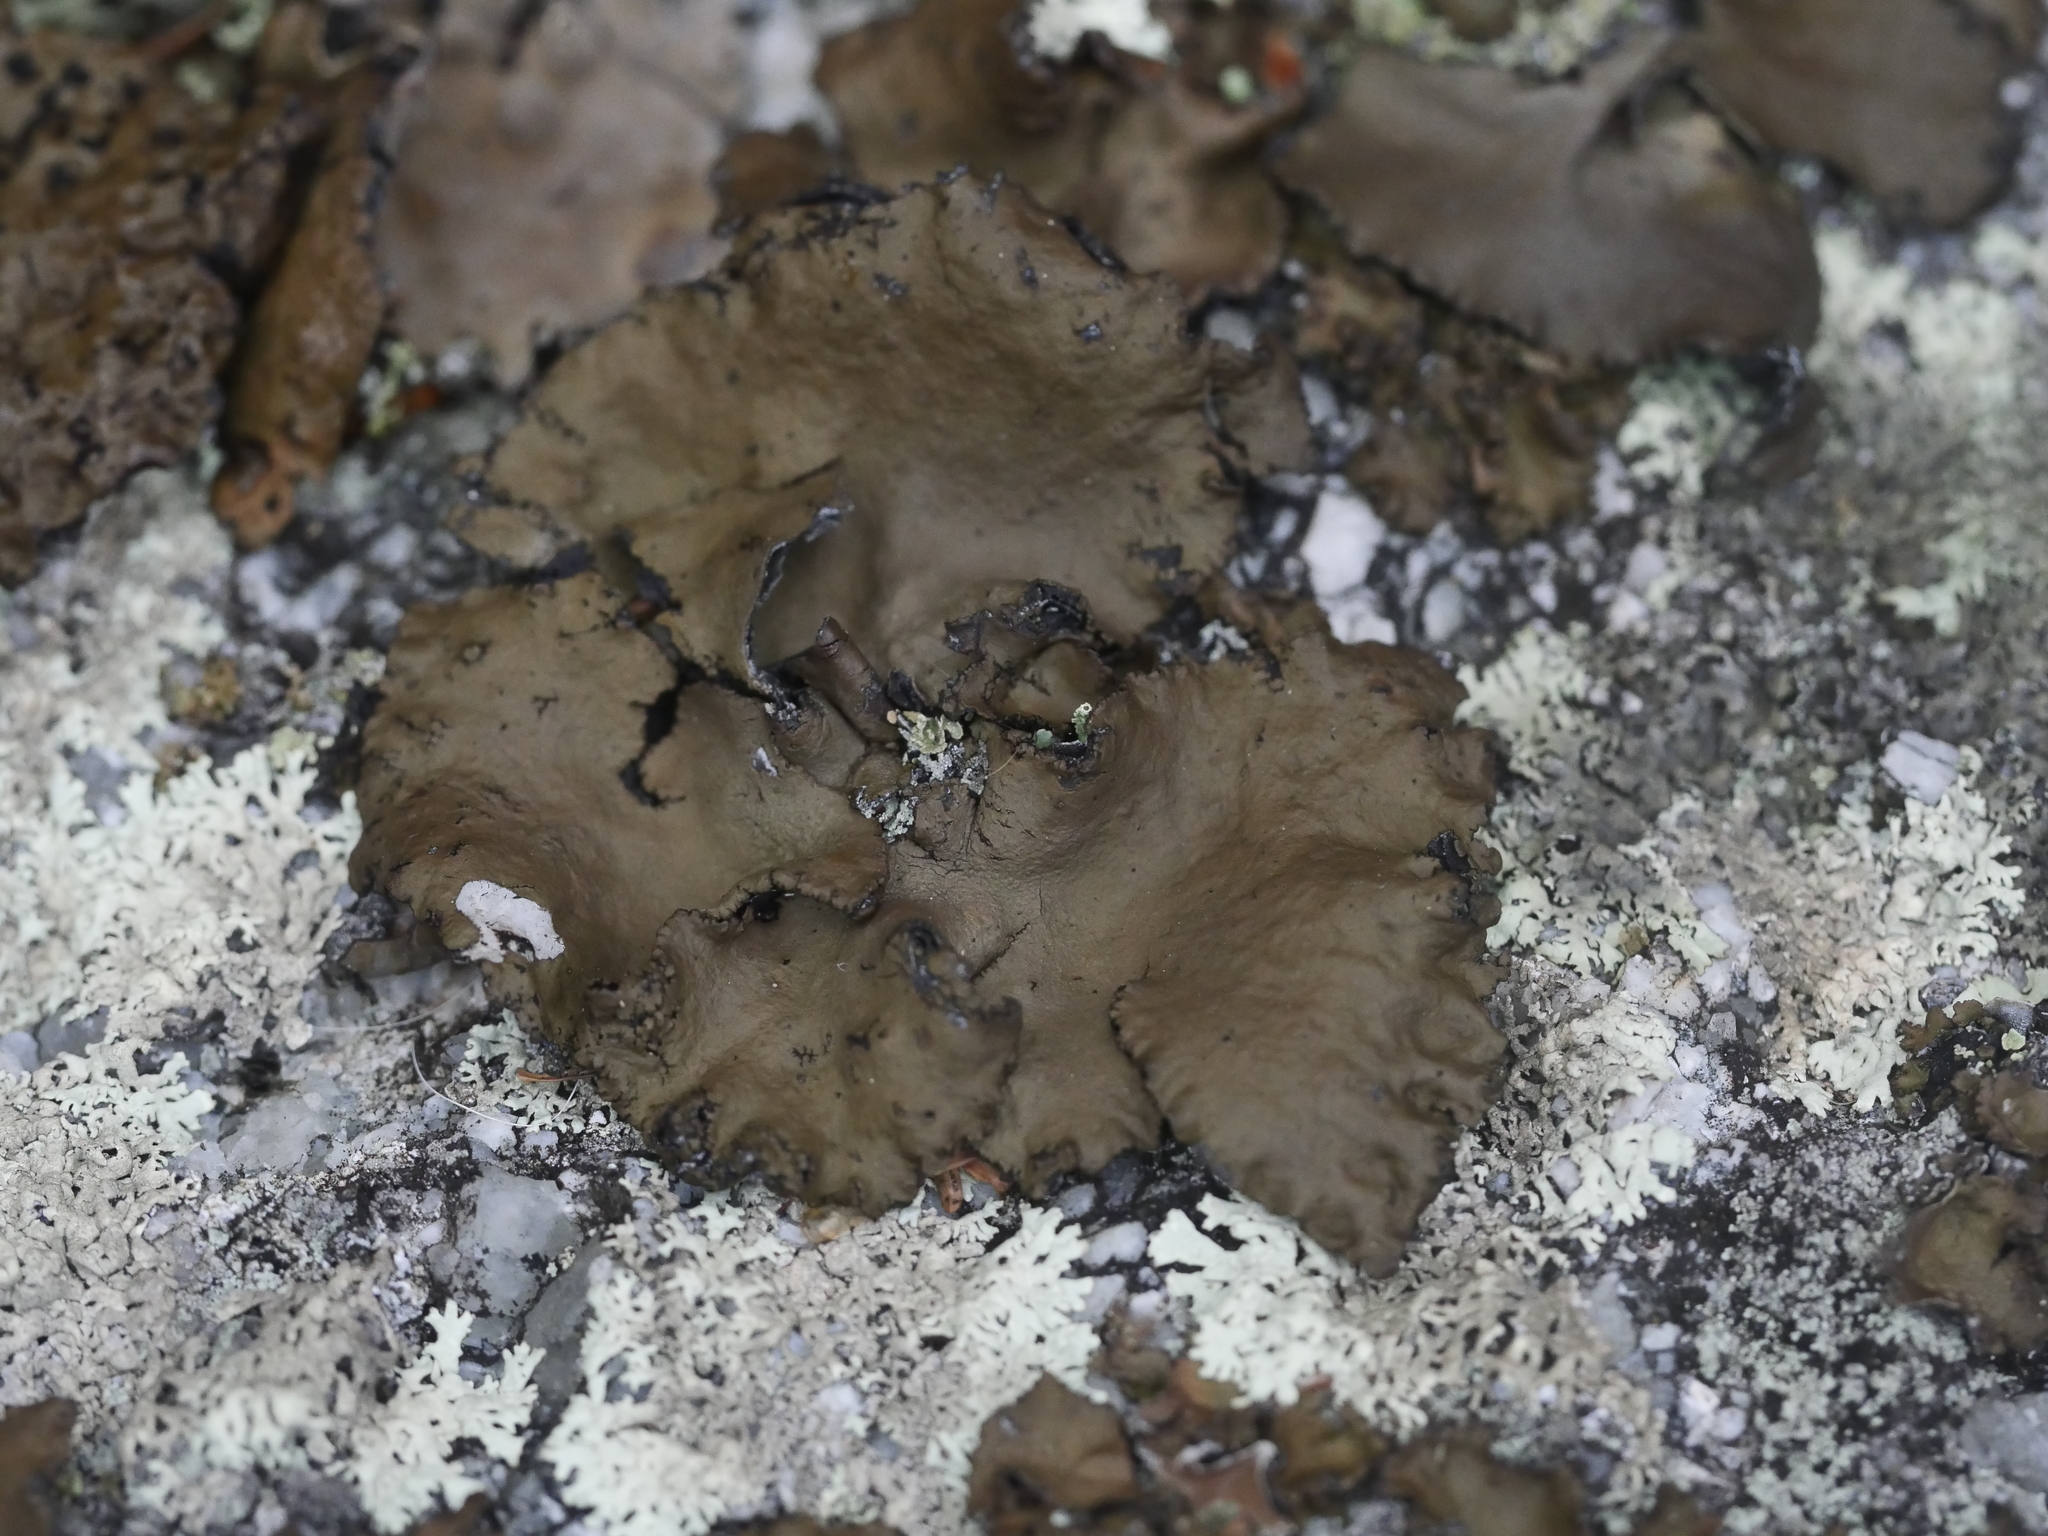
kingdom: Fungi
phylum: Ascomycota
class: Lecanoromycetes
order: Umbilicariales
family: Umbilicariaceae
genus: Umbilicaria
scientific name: Umbilicaria muhlenbergii
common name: Lesser rocktripe
